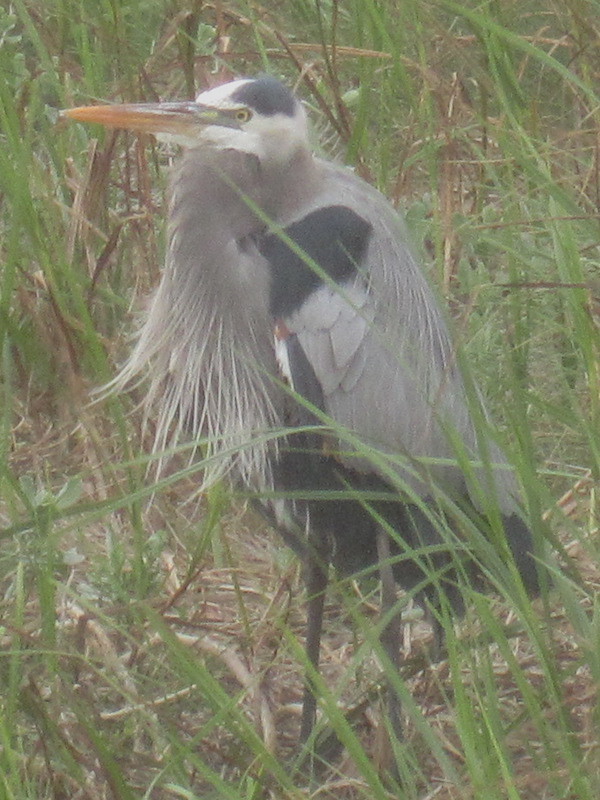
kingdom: Animalia
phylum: Chordata
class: Aves
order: Pelecaniformes
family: Ardeidae
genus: Ardea
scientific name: Ardea herodias
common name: Great blue heron
